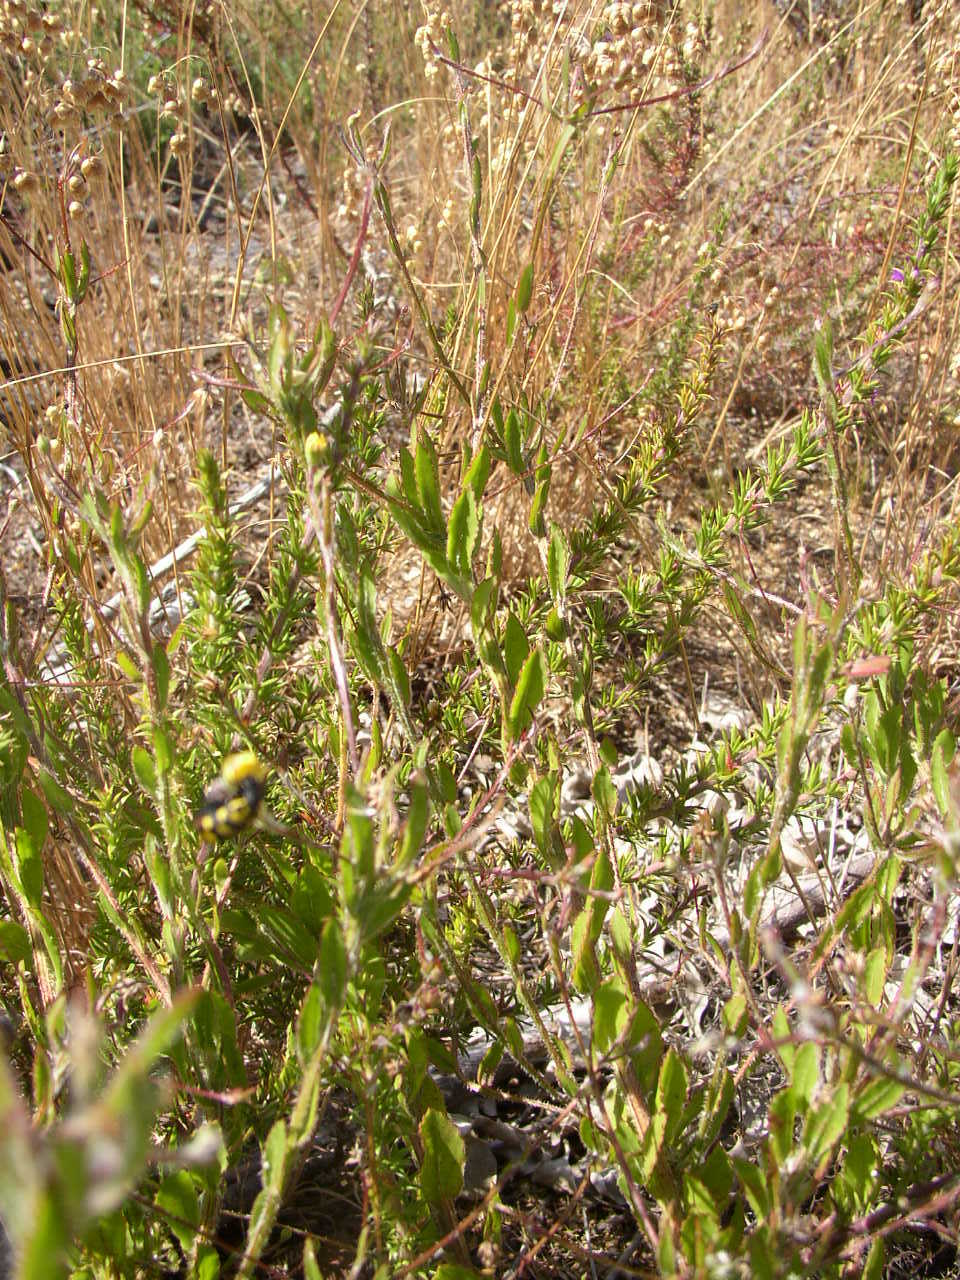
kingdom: Plantae
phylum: Tracheophyta
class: Magnoliopsida
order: Asterales
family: Asteraceae
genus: Osteospermum
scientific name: Osteospermum ciliatum
